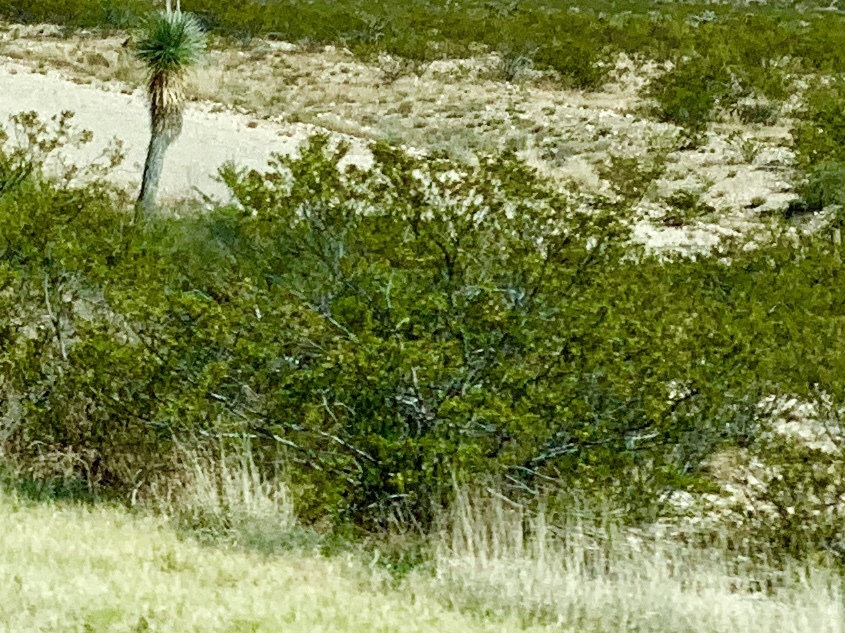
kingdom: Plantae
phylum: Tracheophyta
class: Magnoliopsida
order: Zygophyllales
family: Zygophyllaceae
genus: Larrea
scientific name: Larrea tridentata
